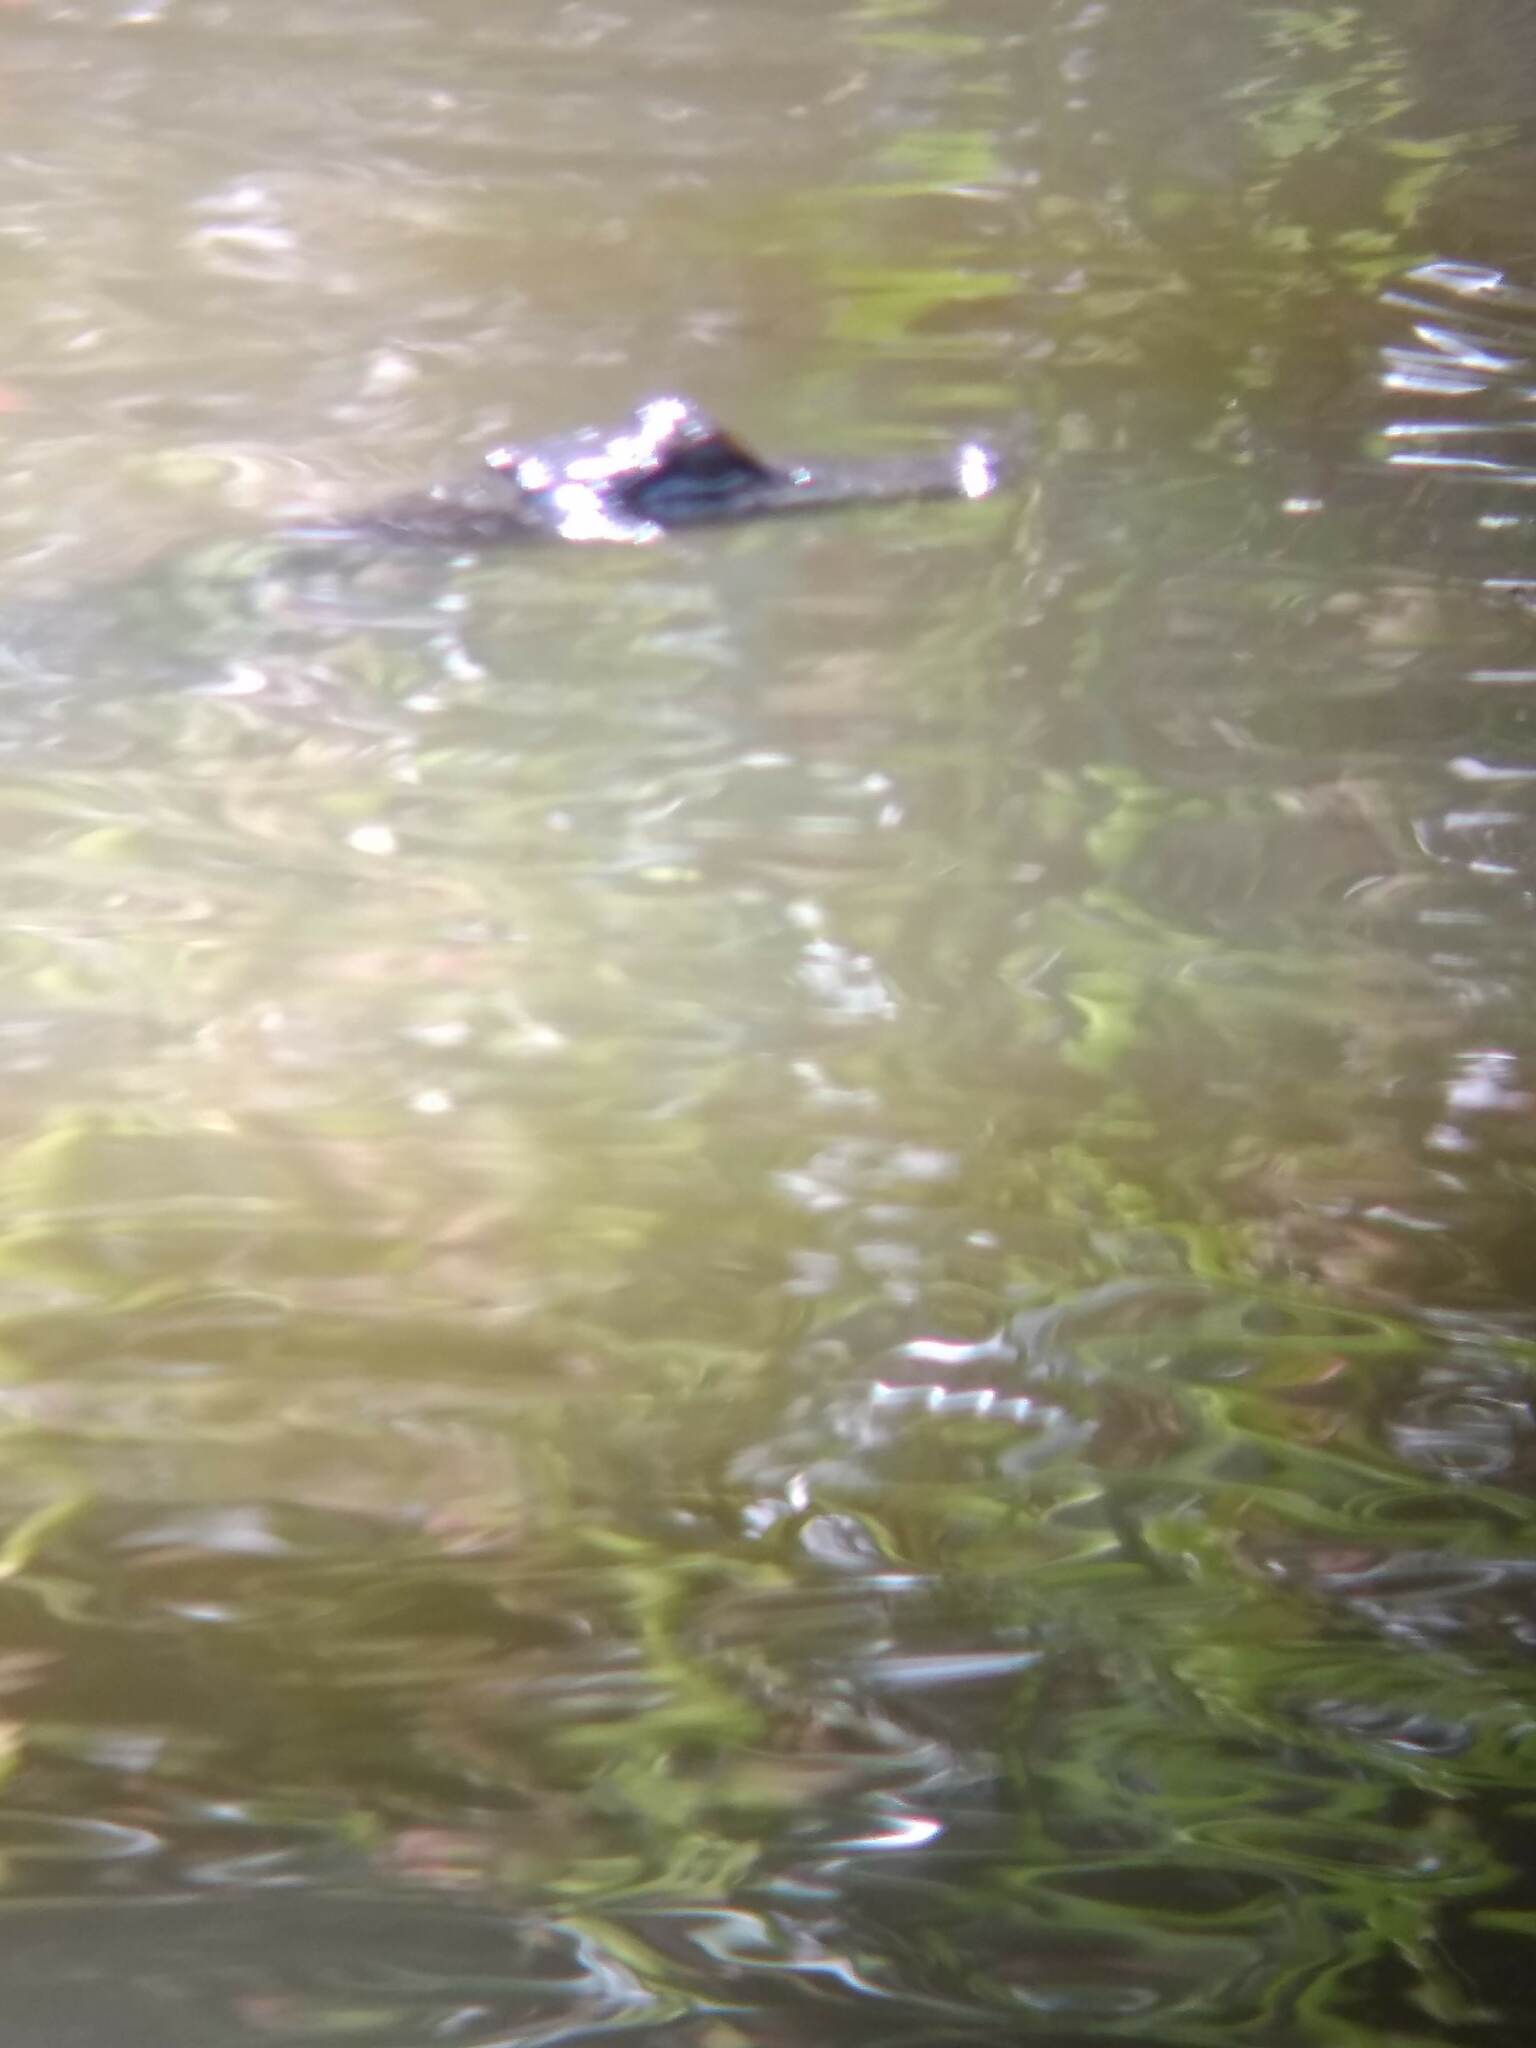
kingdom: Animalia
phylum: Chordata
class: Crocodylia
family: Alligatoridae
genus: Alligator
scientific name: Alligator mississippiensis
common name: American alligator
